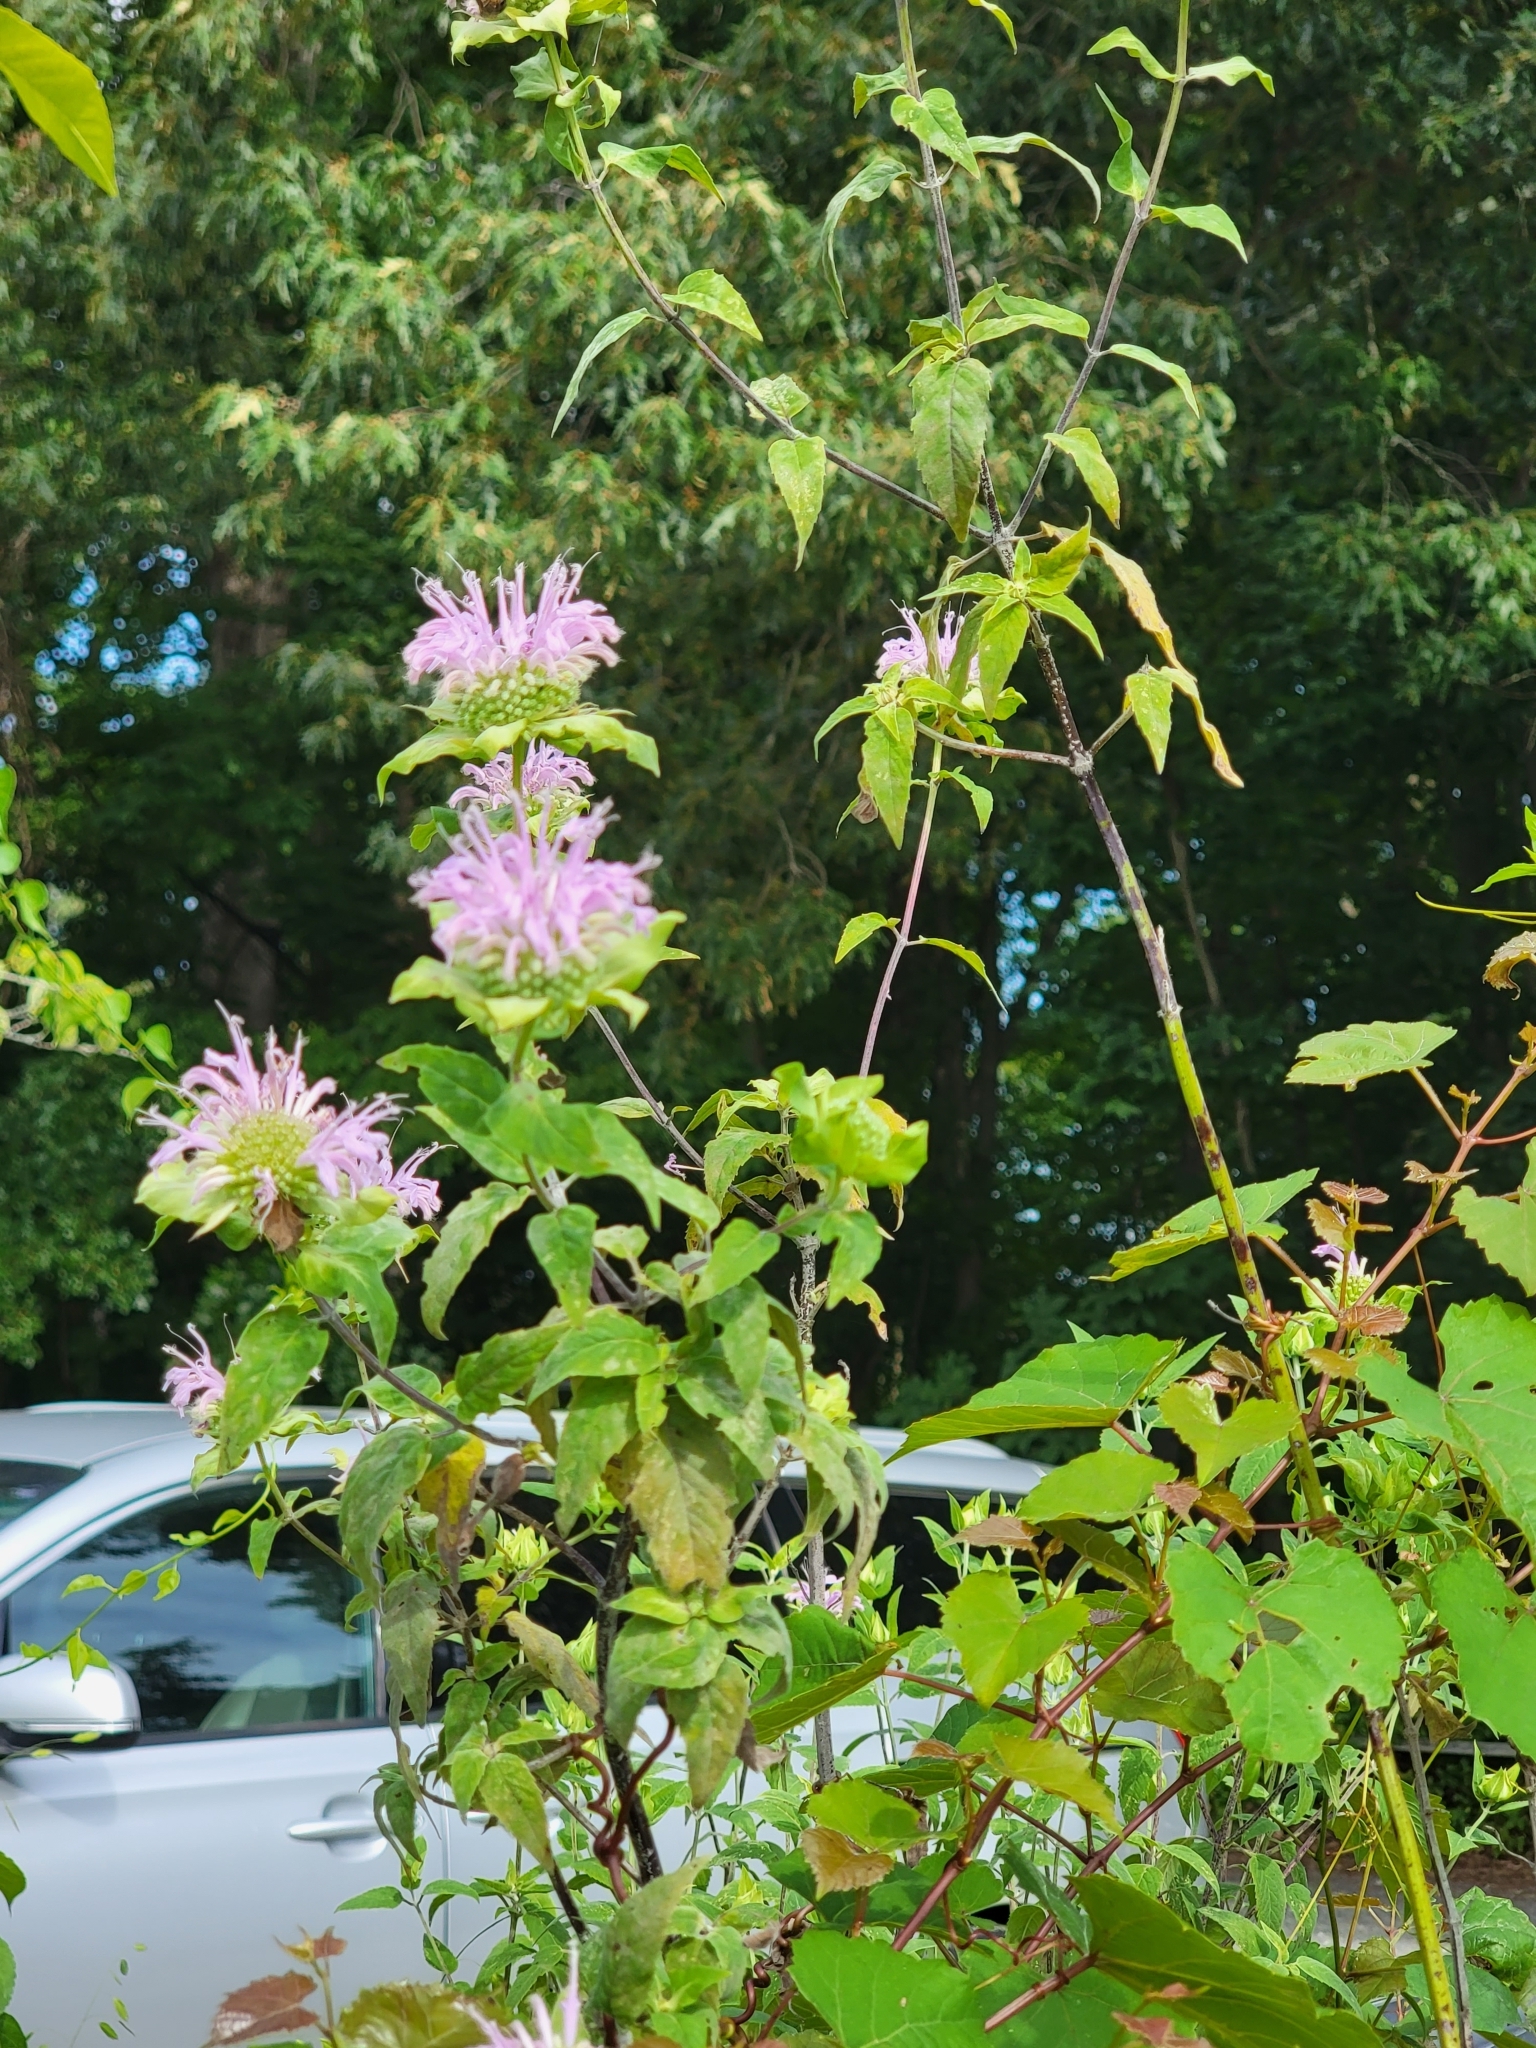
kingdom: Plantae
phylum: Tracheophyta
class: Magnoliopsida
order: Lamiales
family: Lamiaceae
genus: Monarda
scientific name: Monarda fistulosa
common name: Purple beebalm
